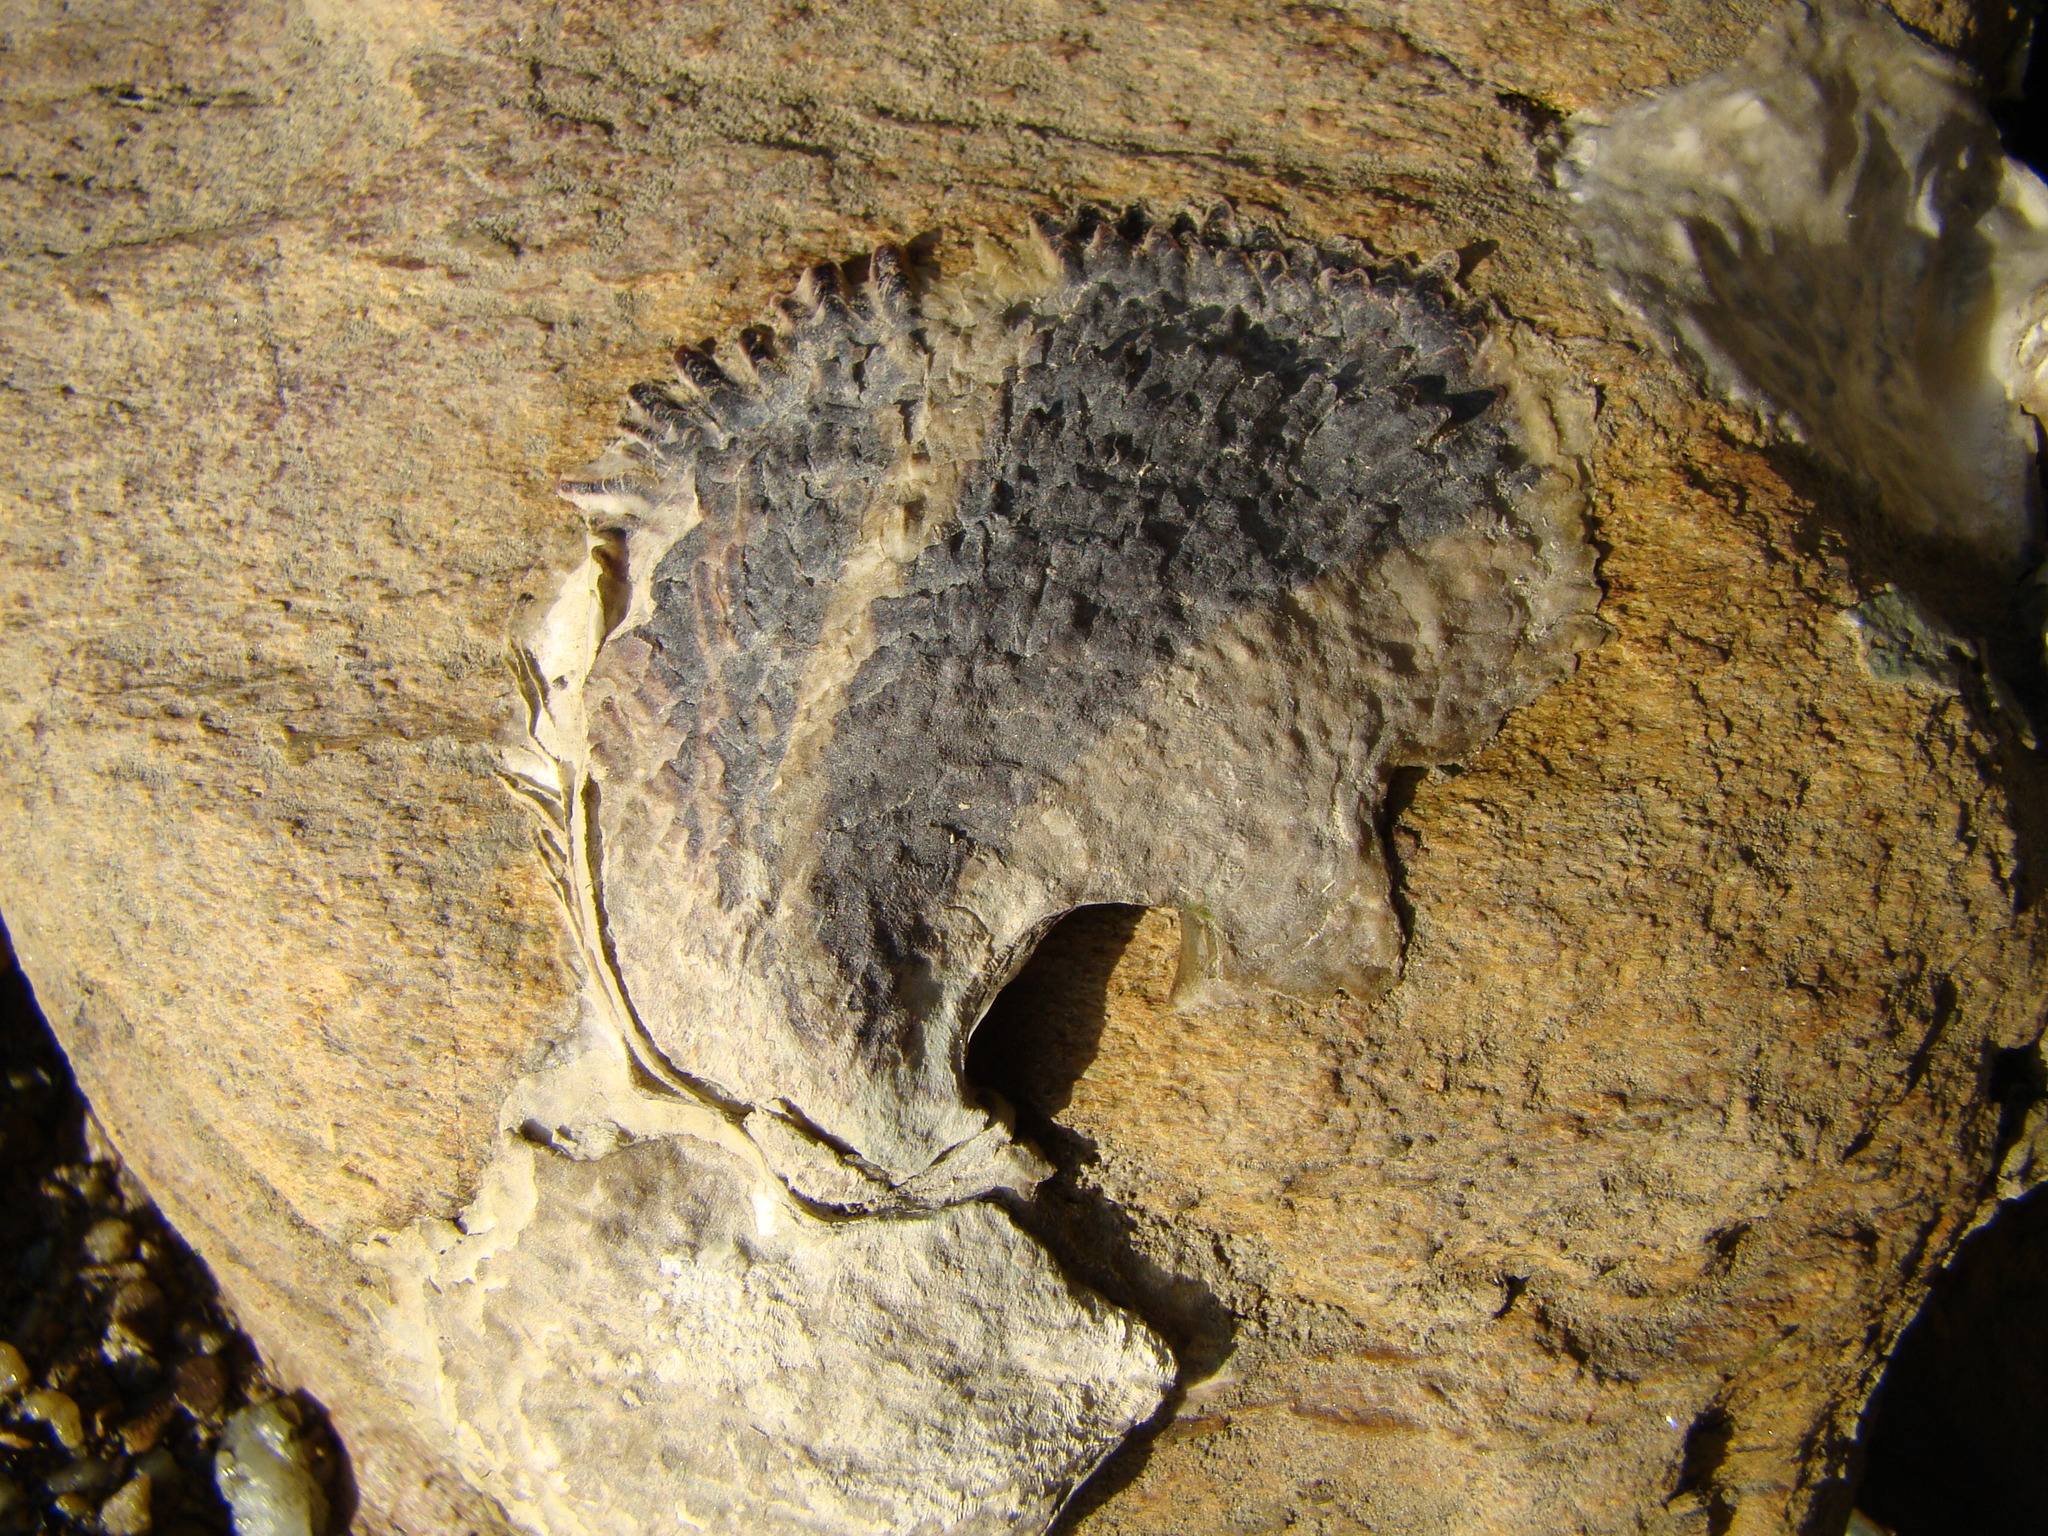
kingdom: Animalia
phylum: Mollusca
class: Bivalvia
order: Ostreida
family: Ostreidae
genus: Magallana
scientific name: Magallana gigas
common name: Pacific oyster
